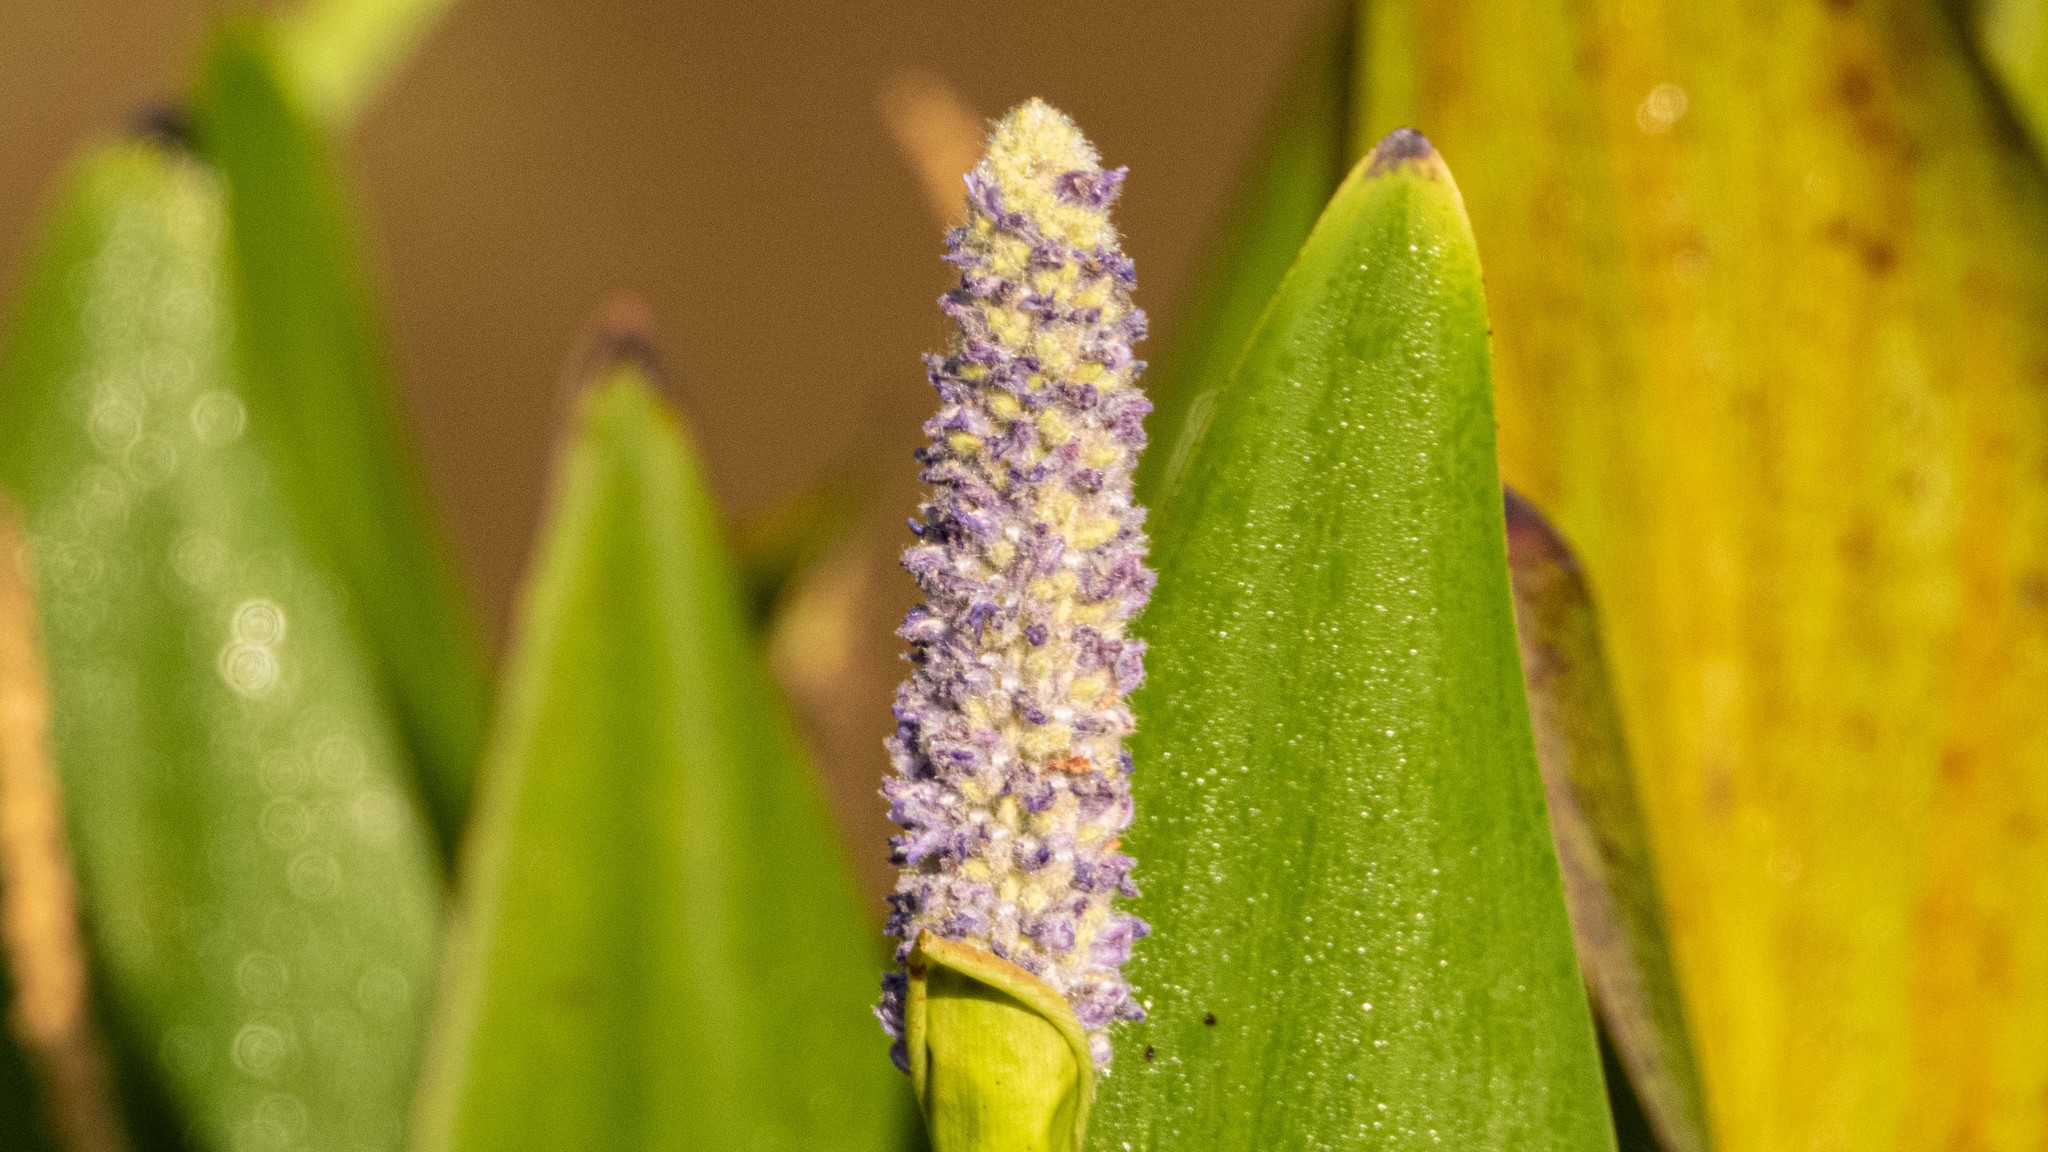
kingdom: Plantae
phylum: Tracheophyta
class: Liliopsida
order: Commelinales
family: Pontederiaceae
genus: Pontederia
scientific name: Pontederia cordata
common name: Pickerelweed
